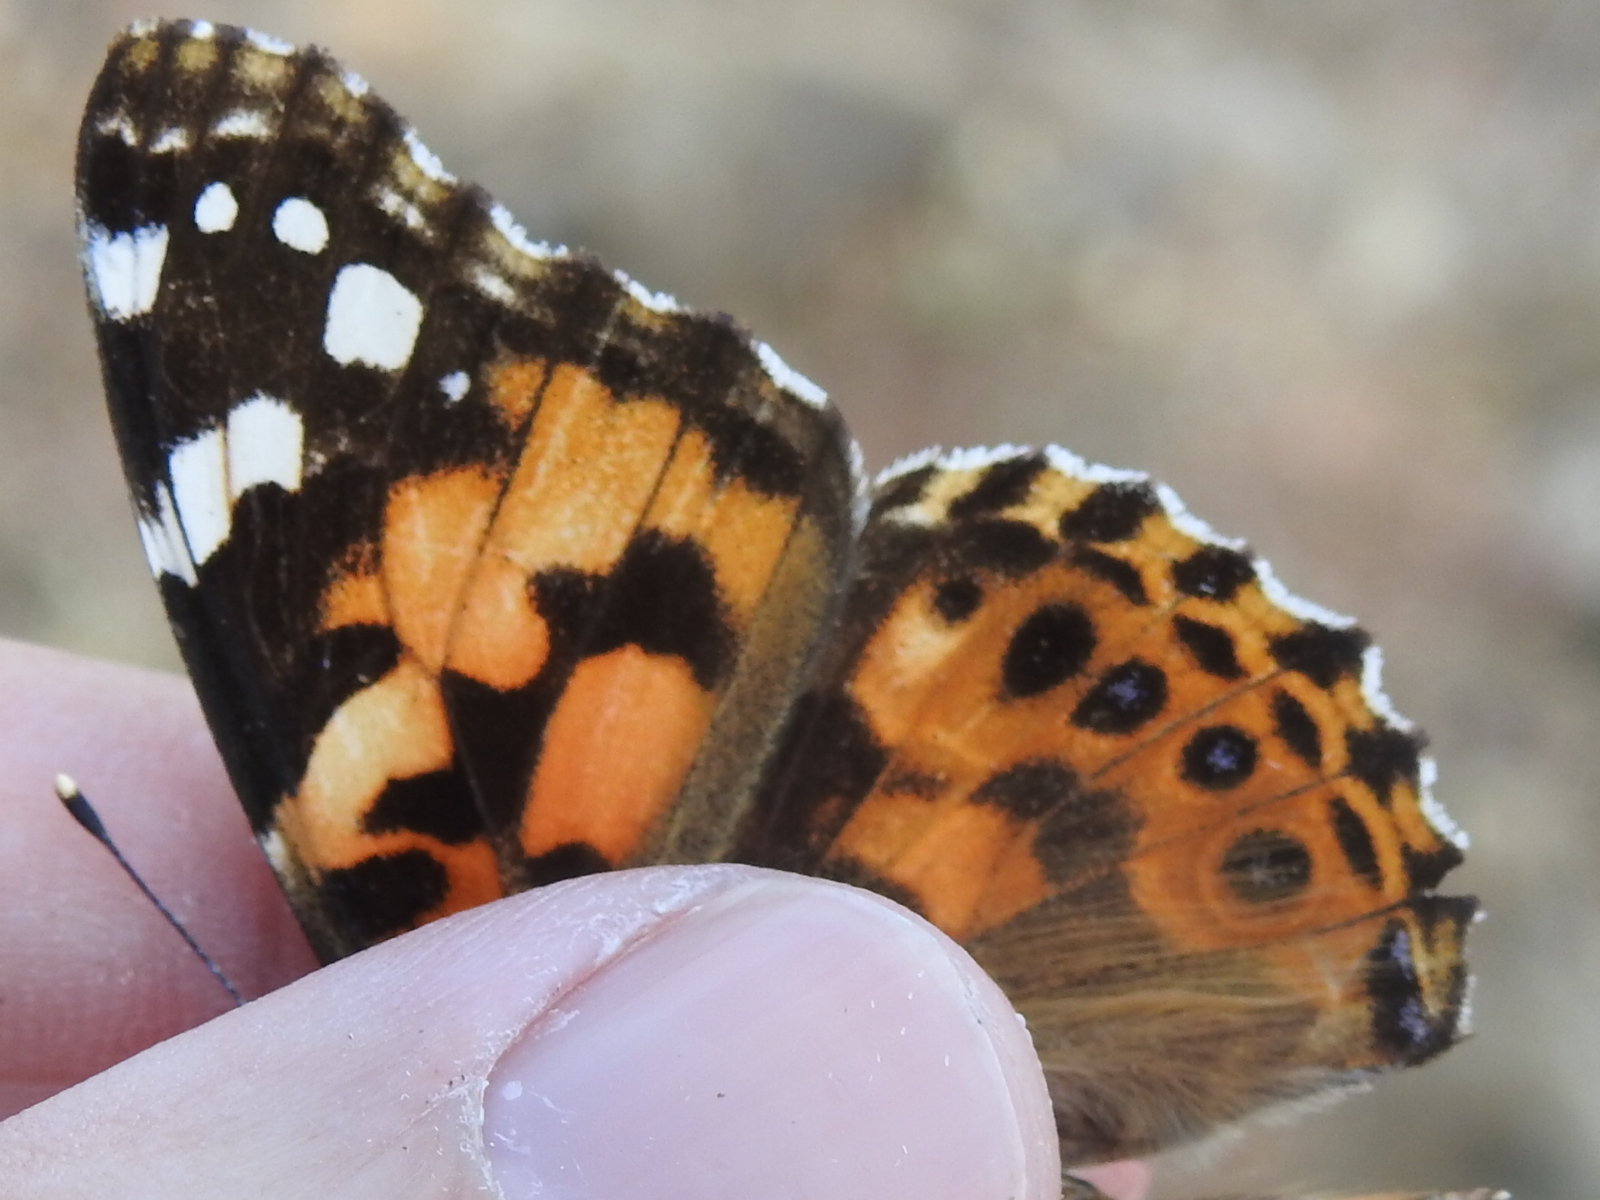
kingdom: Animalia
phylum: Arthropoda
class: Insecta
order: Lepidoptera
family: Nymphalidae
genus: Vanessa
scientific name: Vanessa cardui
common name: Painted lady
